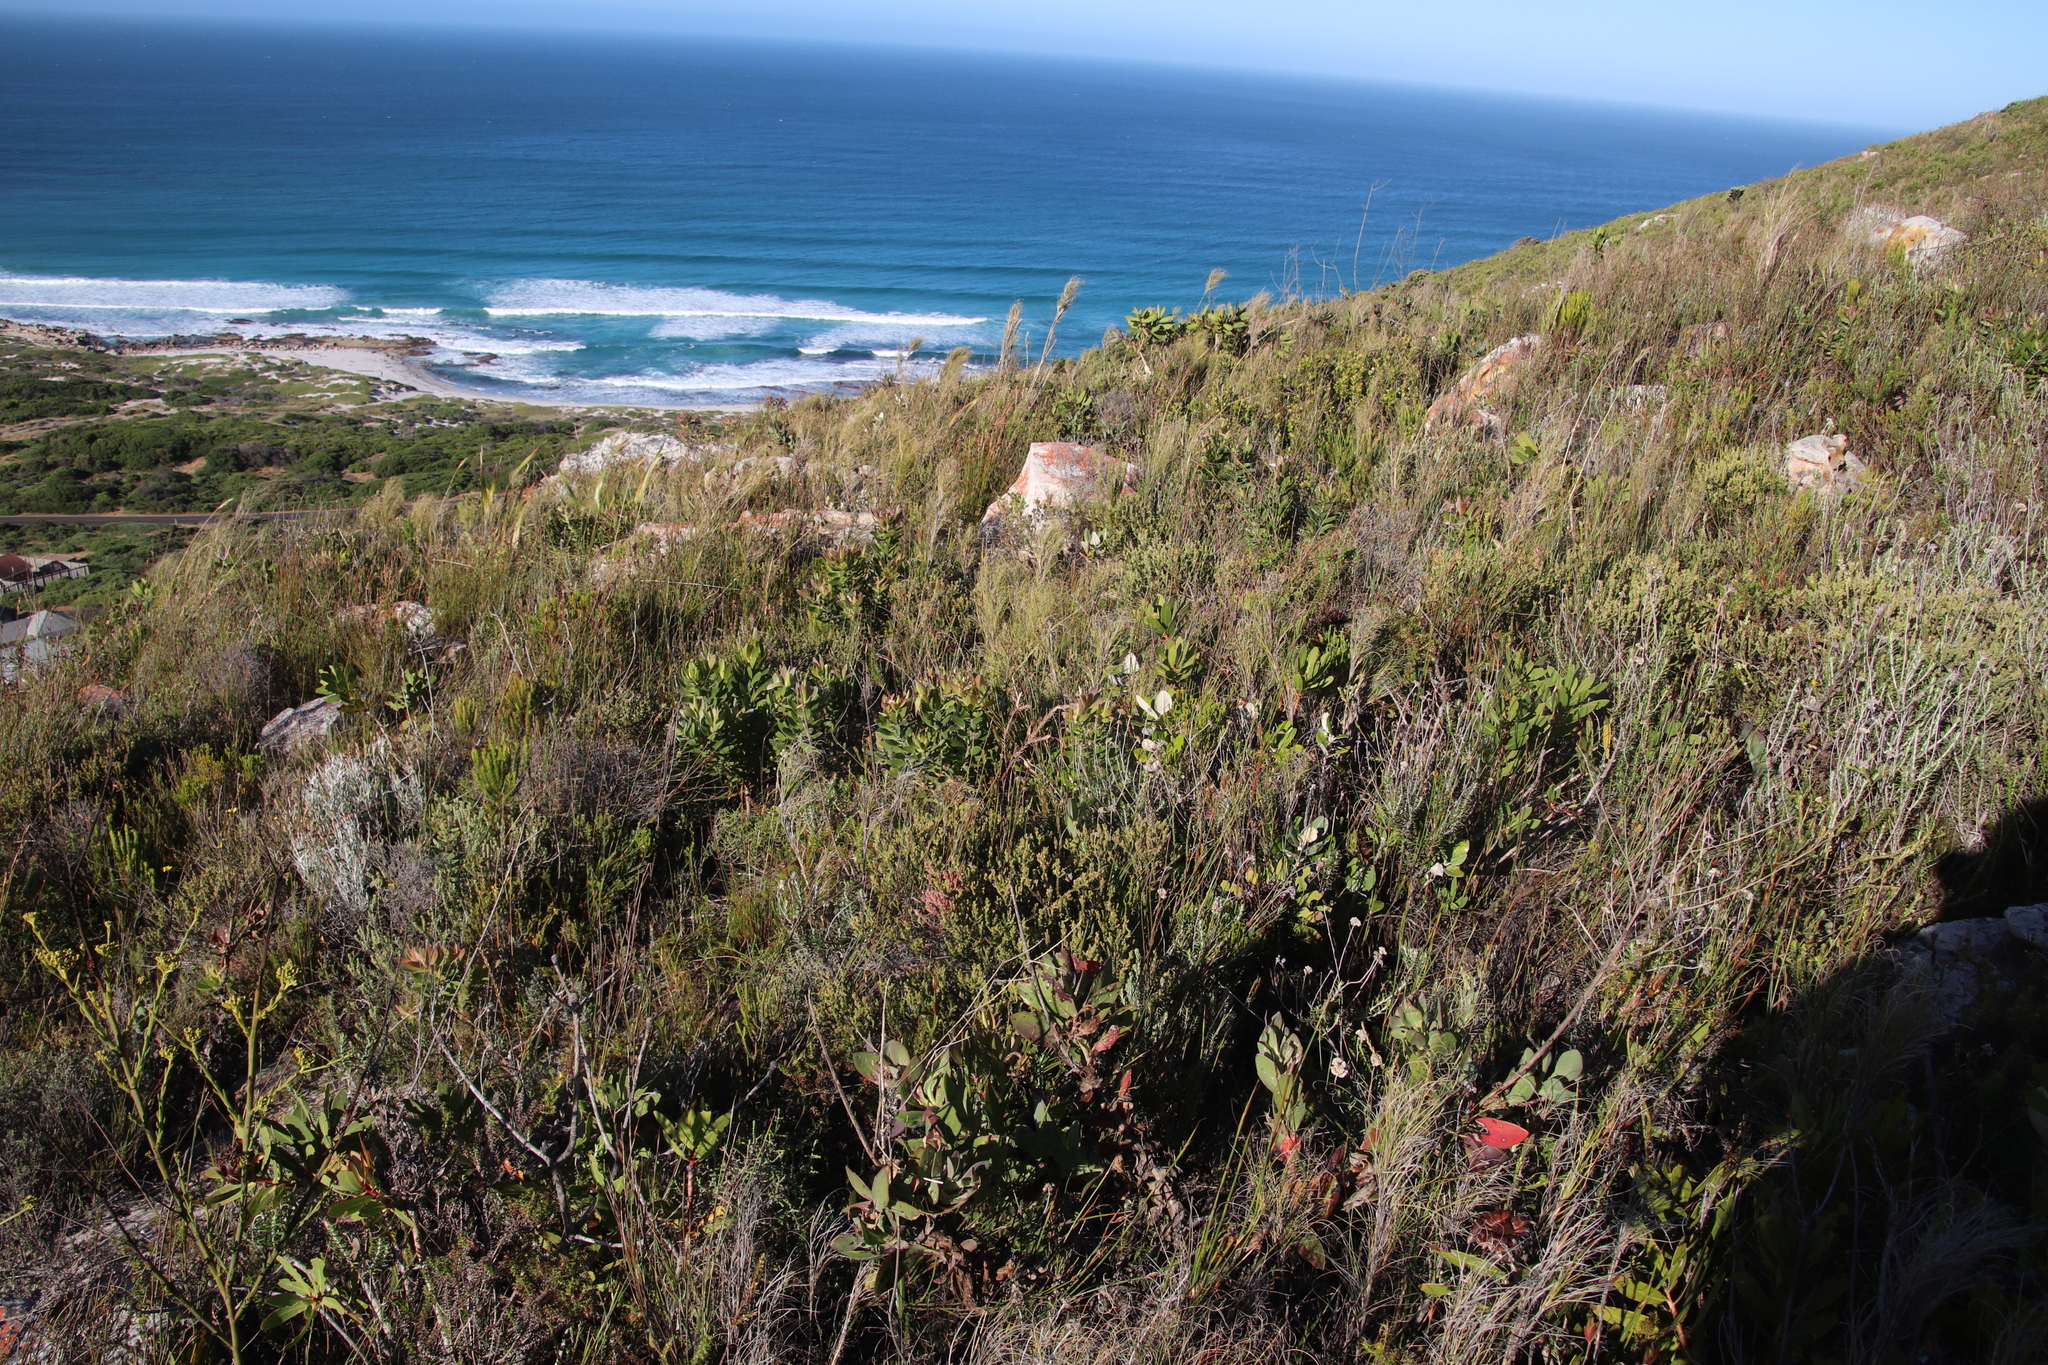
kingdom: Plantae
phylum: Tracheophyta
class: Magnoliopsida
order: Proteales
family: Proteaceae
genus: Protea
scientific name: Protea nitida
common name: Tree protea
